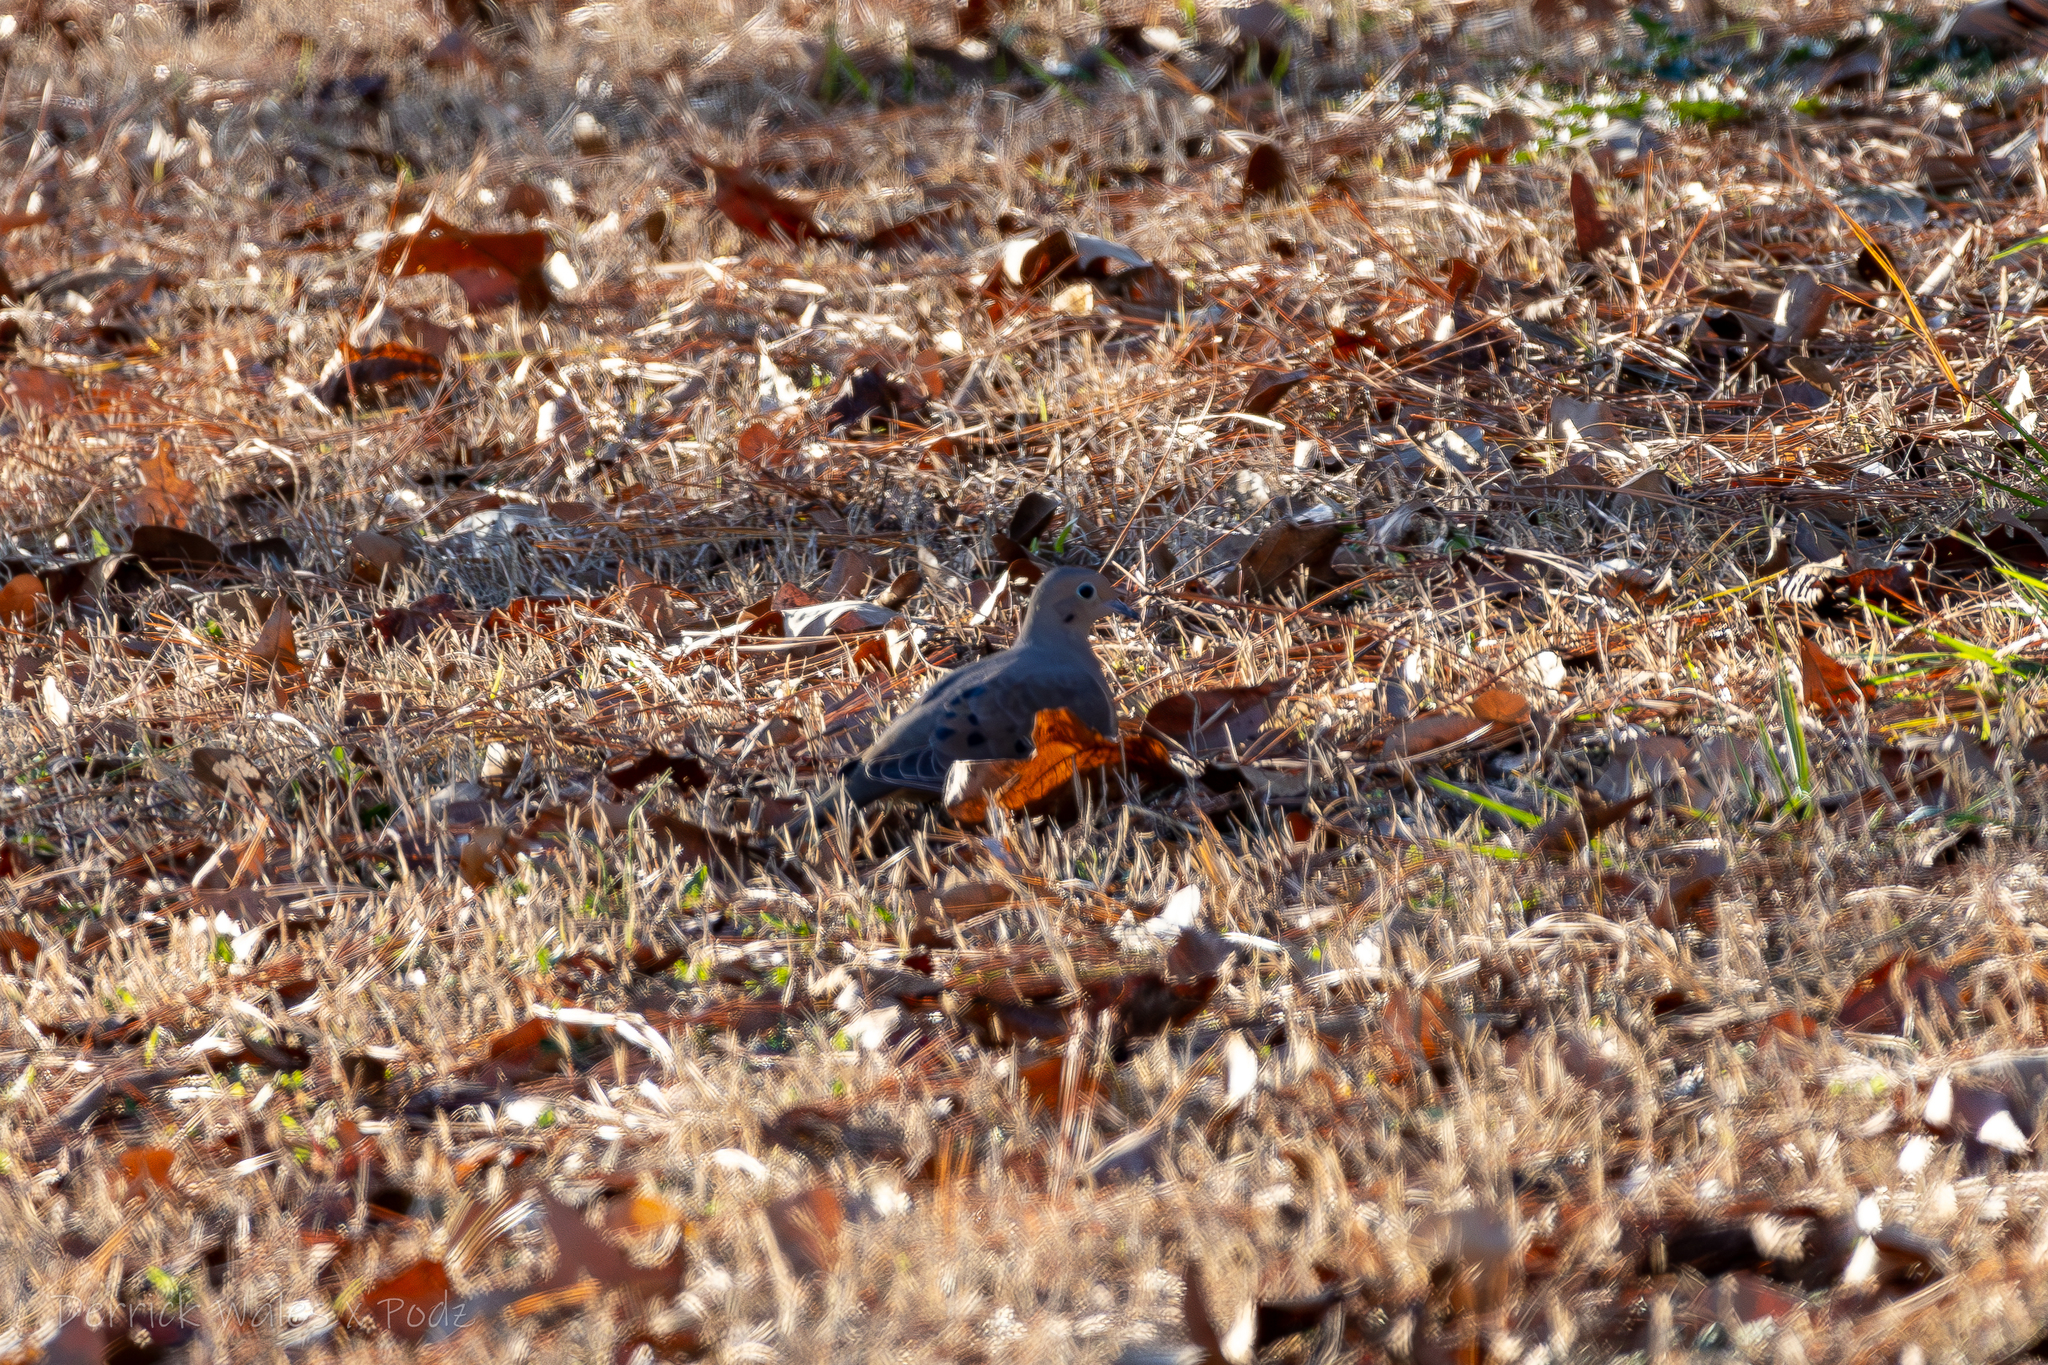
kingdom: Animalia
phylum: Chordata
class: Aves
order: Columbiformes
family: Columbidae
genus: Zenaida
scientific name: Zenaida macroura
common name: Mourning dove
